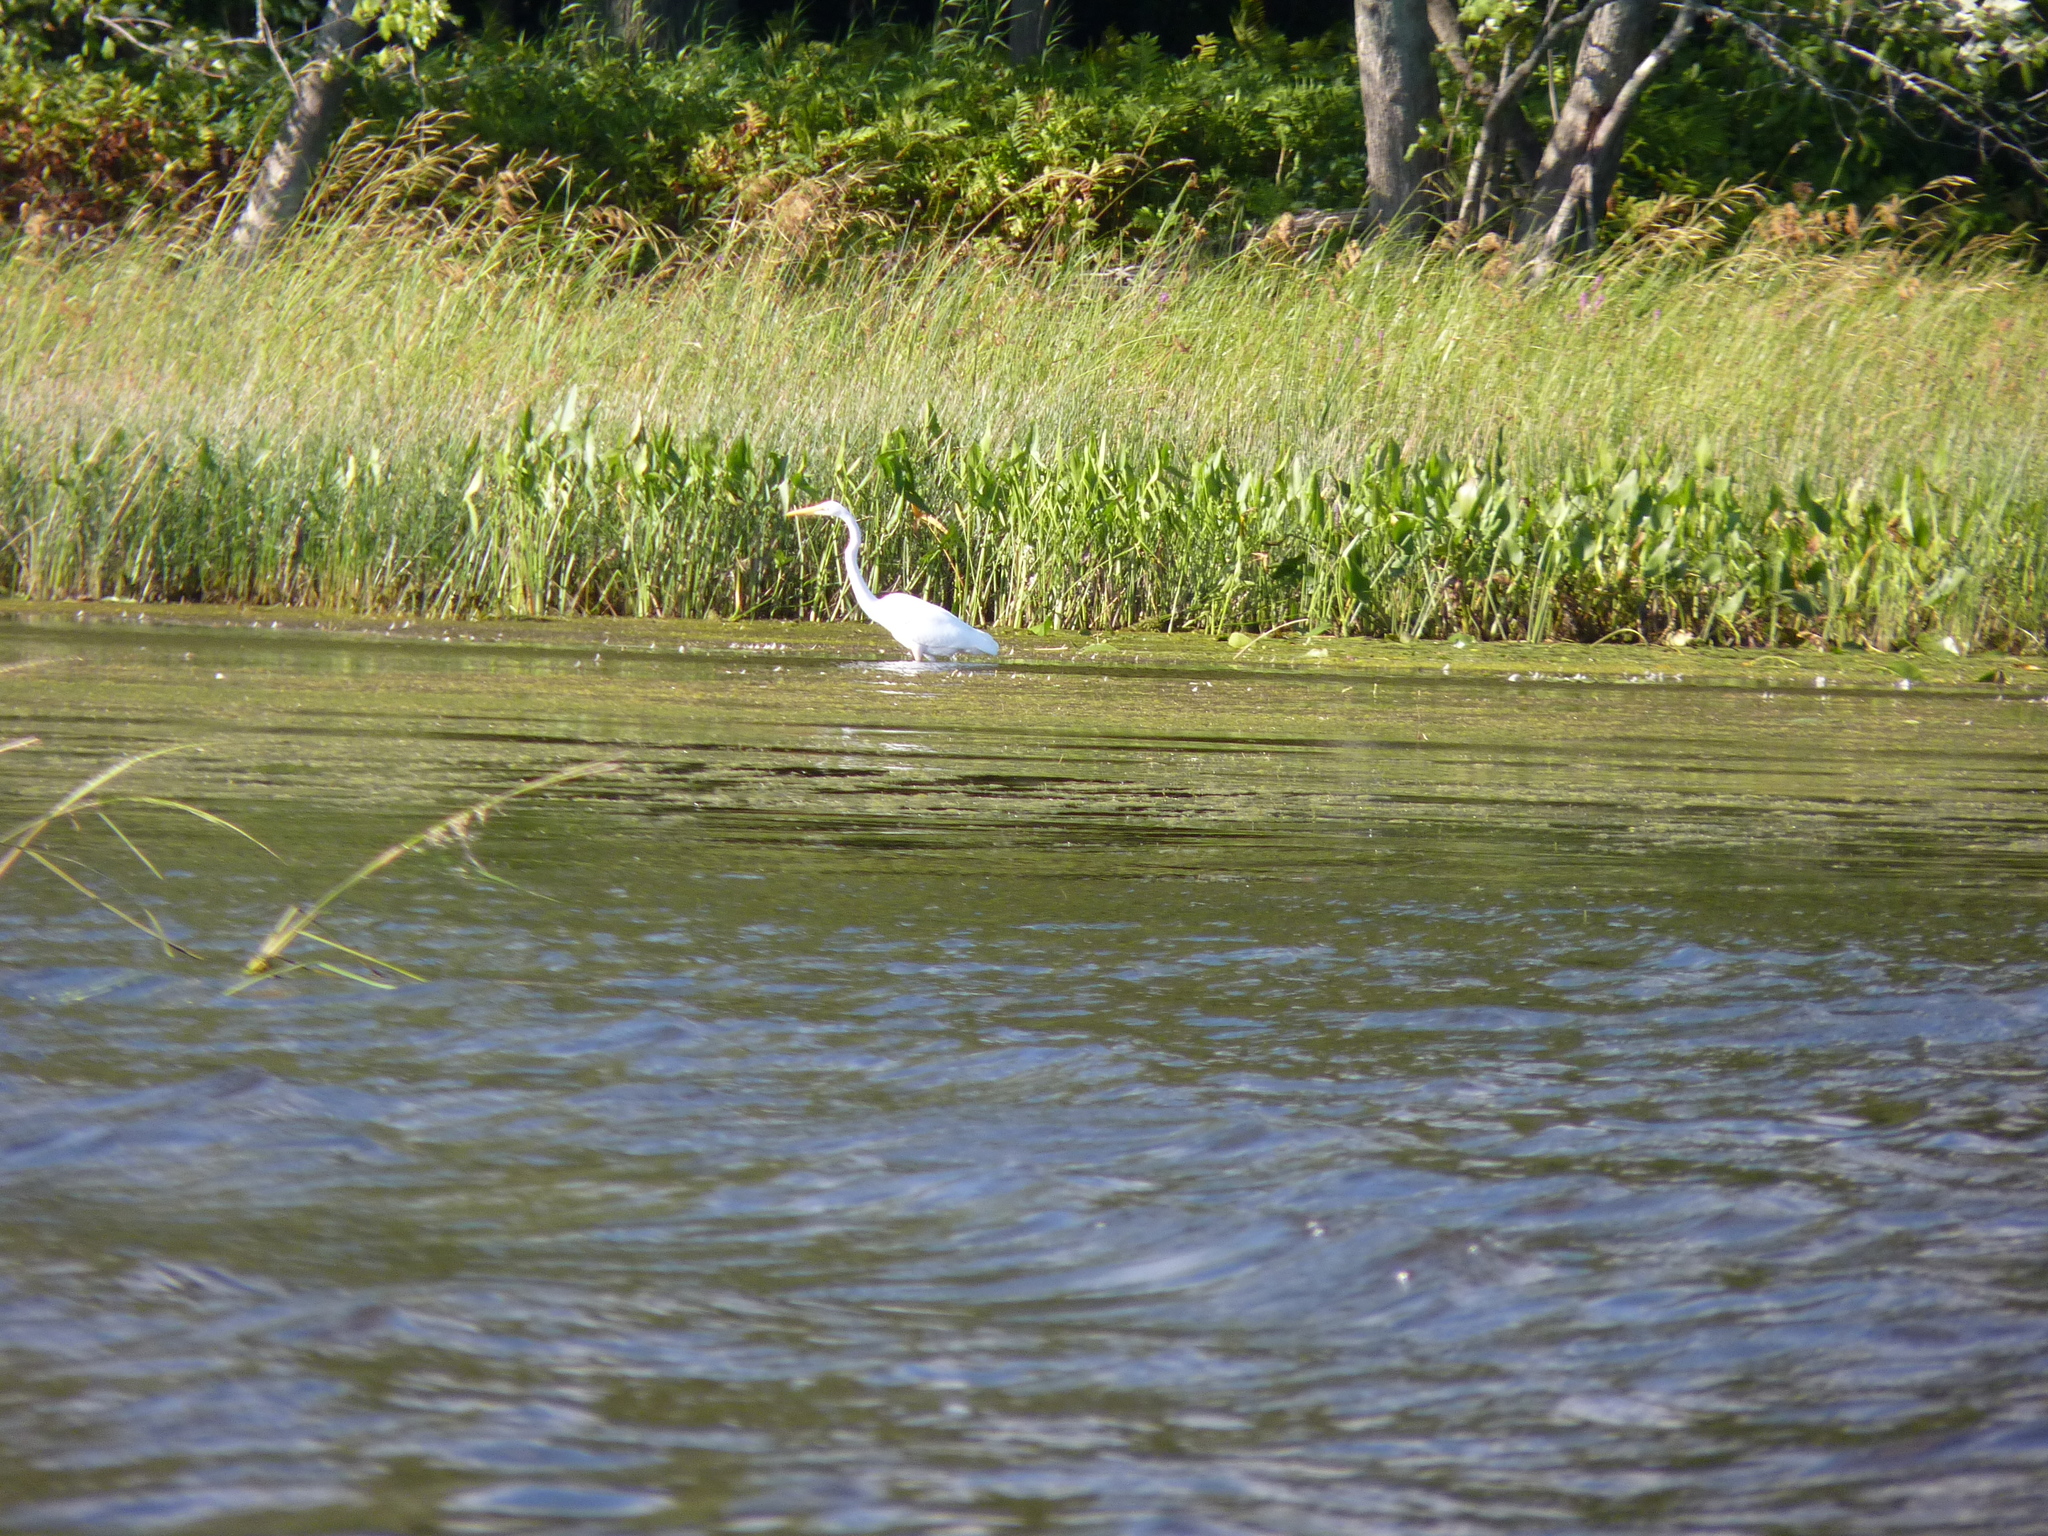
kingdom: Animalia
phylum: Chordata
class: Aves
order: Pelecaniformes
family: Ardeidae
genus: Ardea
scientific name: Ardea alba
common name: Great egret
